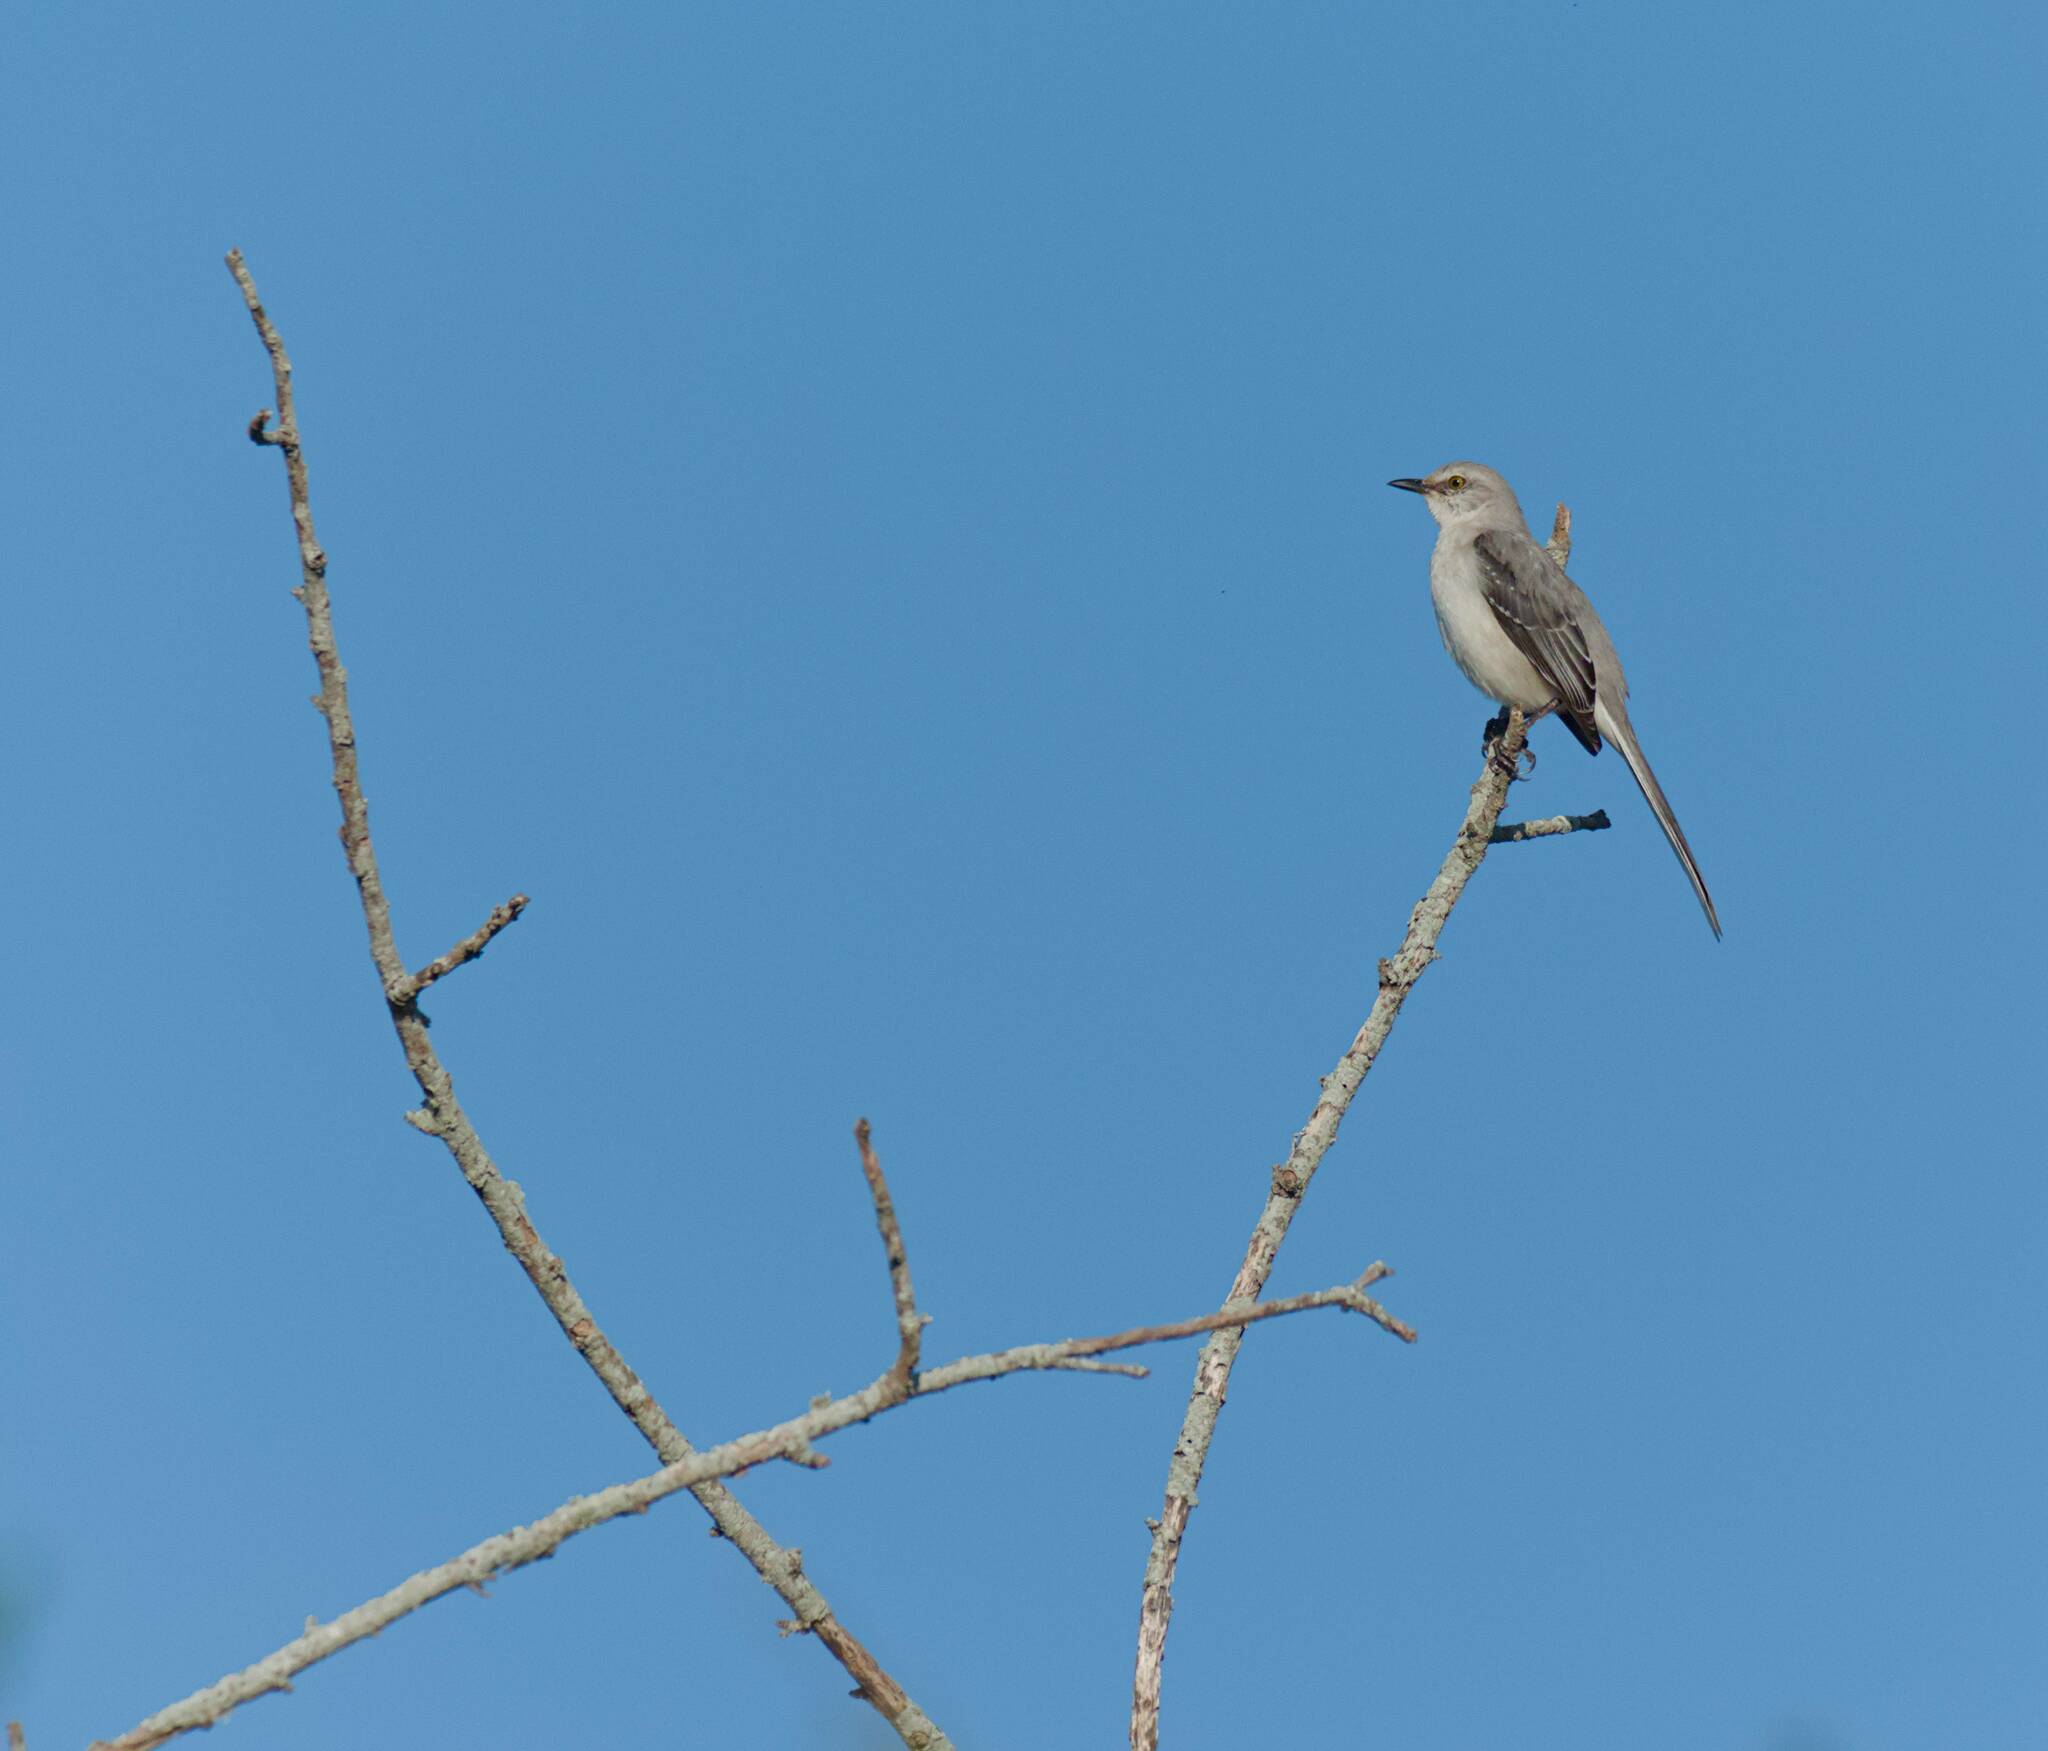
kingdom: Animalia
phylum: Chordata
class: Aves
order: Passeriformes
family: Mimidae
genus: Mimus
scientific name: Mimus gilvus
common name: Tropical mockingbird
